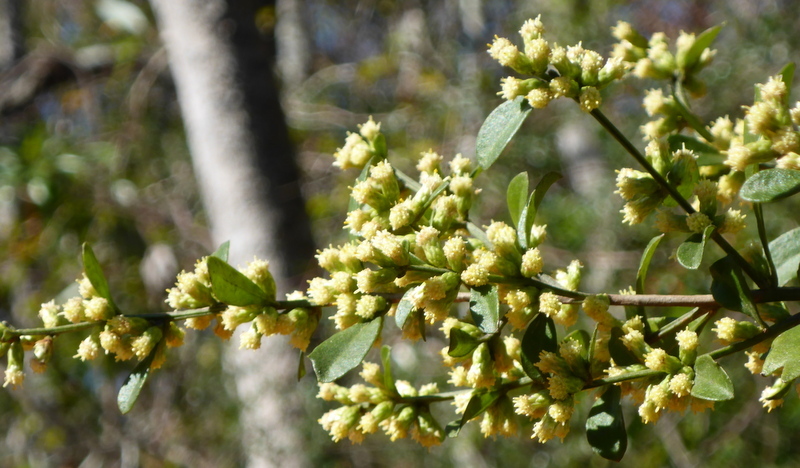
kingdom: Plantae
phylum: Tracheophyta
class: Magnoliopsida
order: Asterales
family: Asteraceae
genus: Baccharis
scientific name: Baccharis glomeruliflora
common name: Silverling groundsel bush
